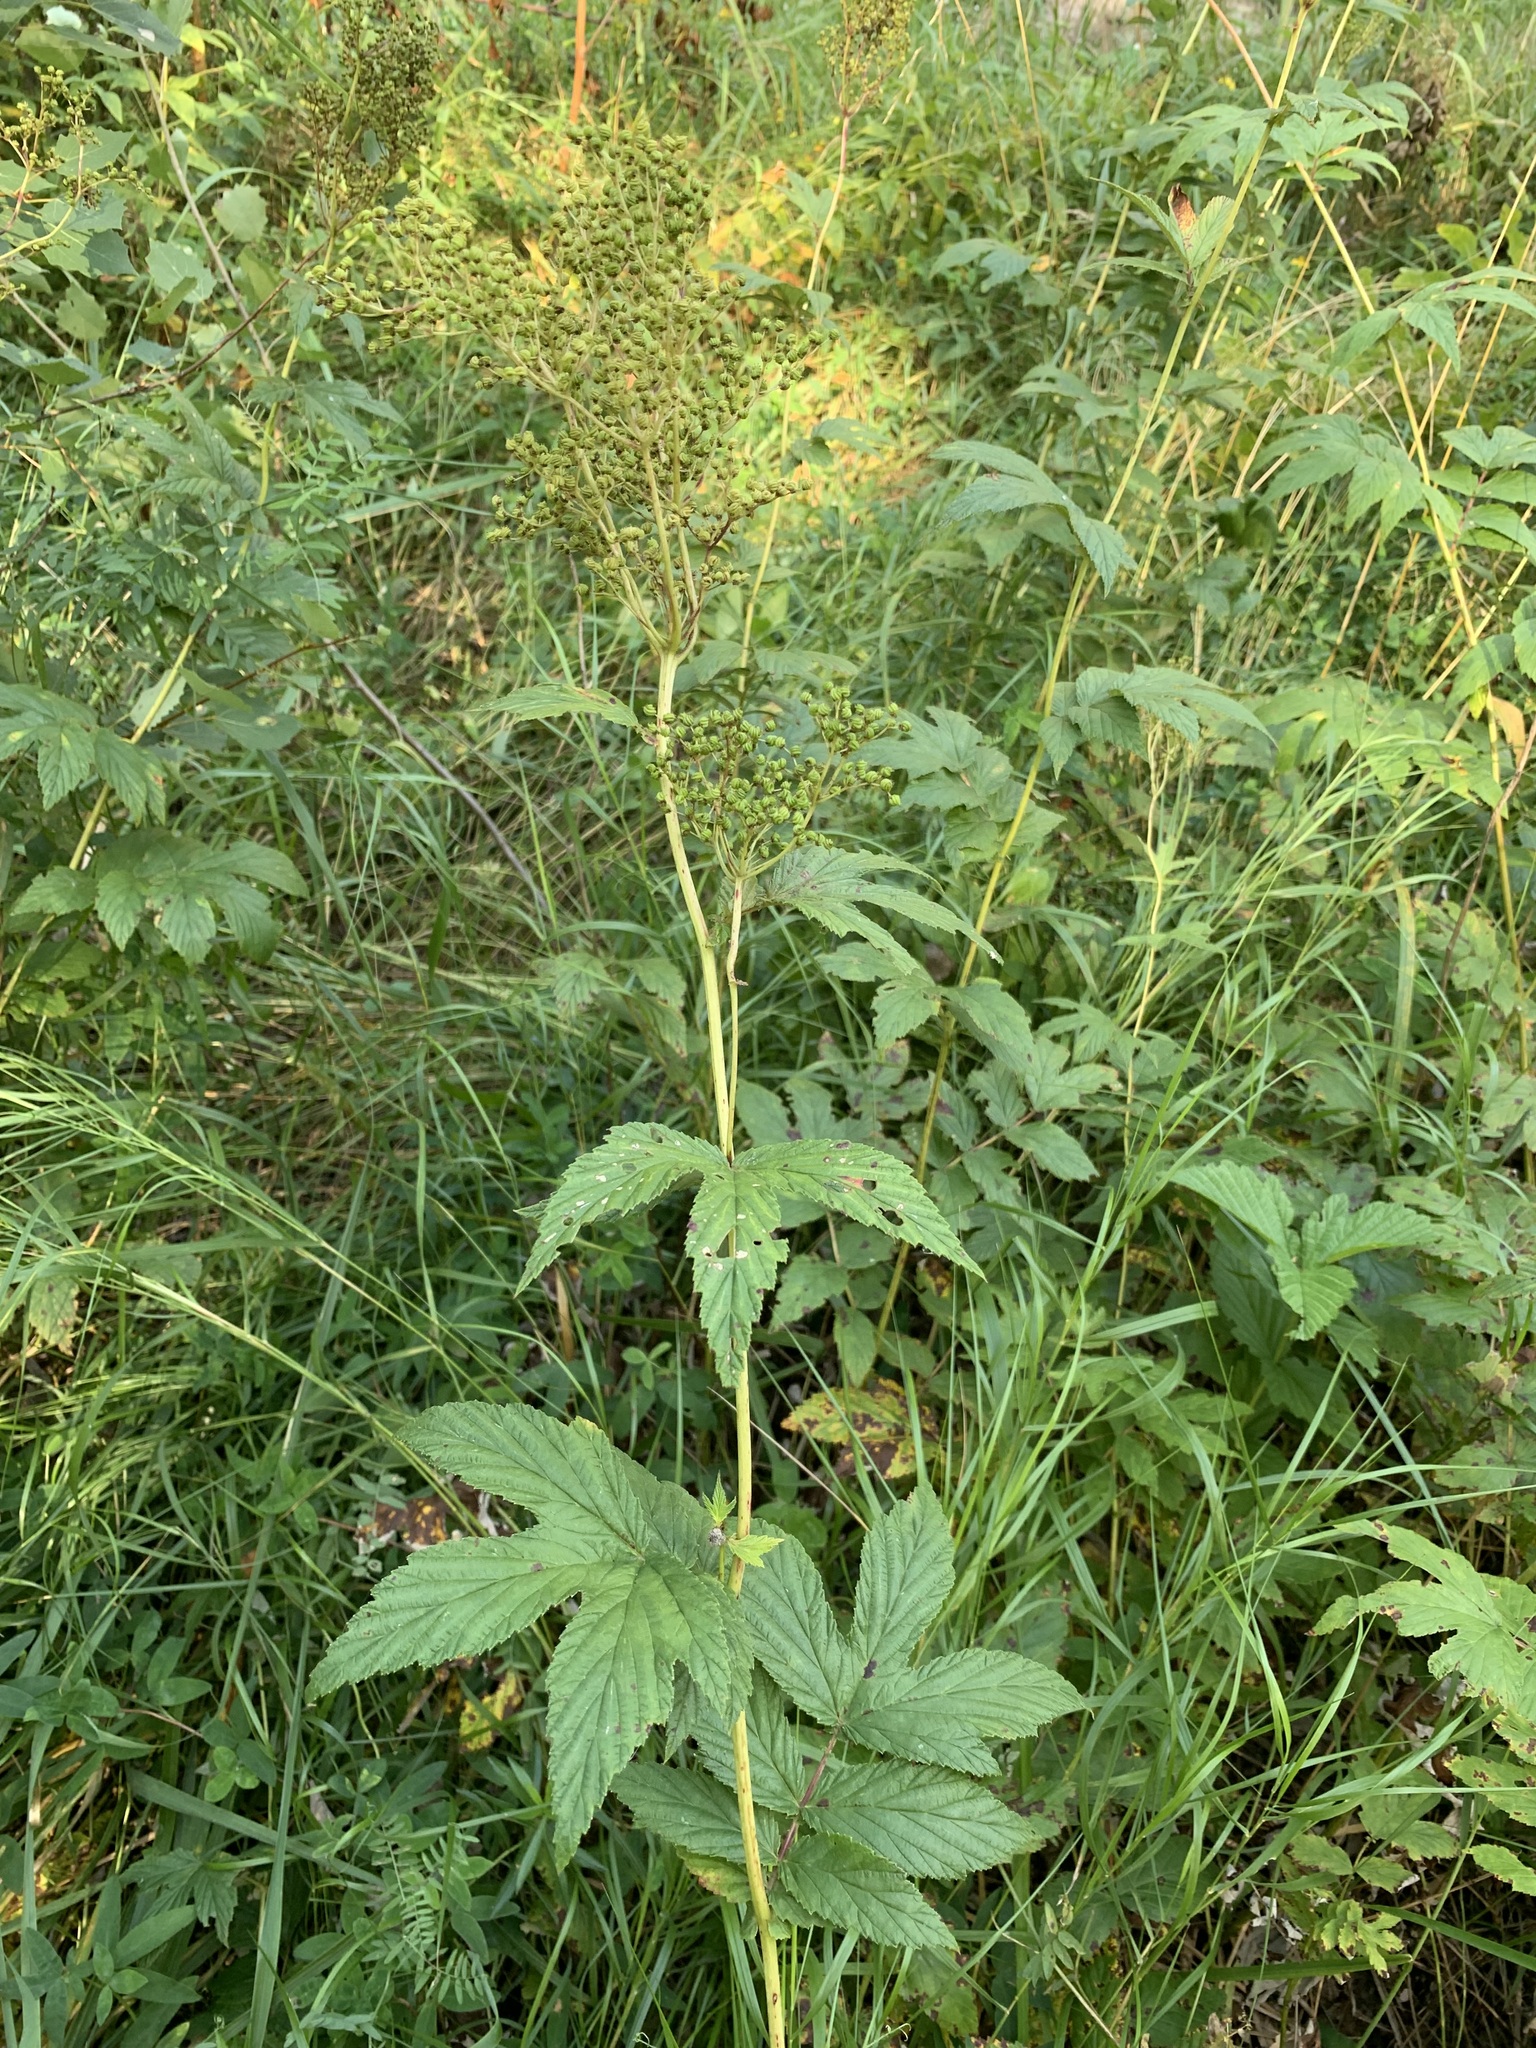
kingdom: Plantae
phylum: Tracheophyta
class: Magnoliopsida
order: Rosales
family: Rosaceae
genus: Filipendula
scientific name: Filipendula ulmaria
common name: Meadowsweet
